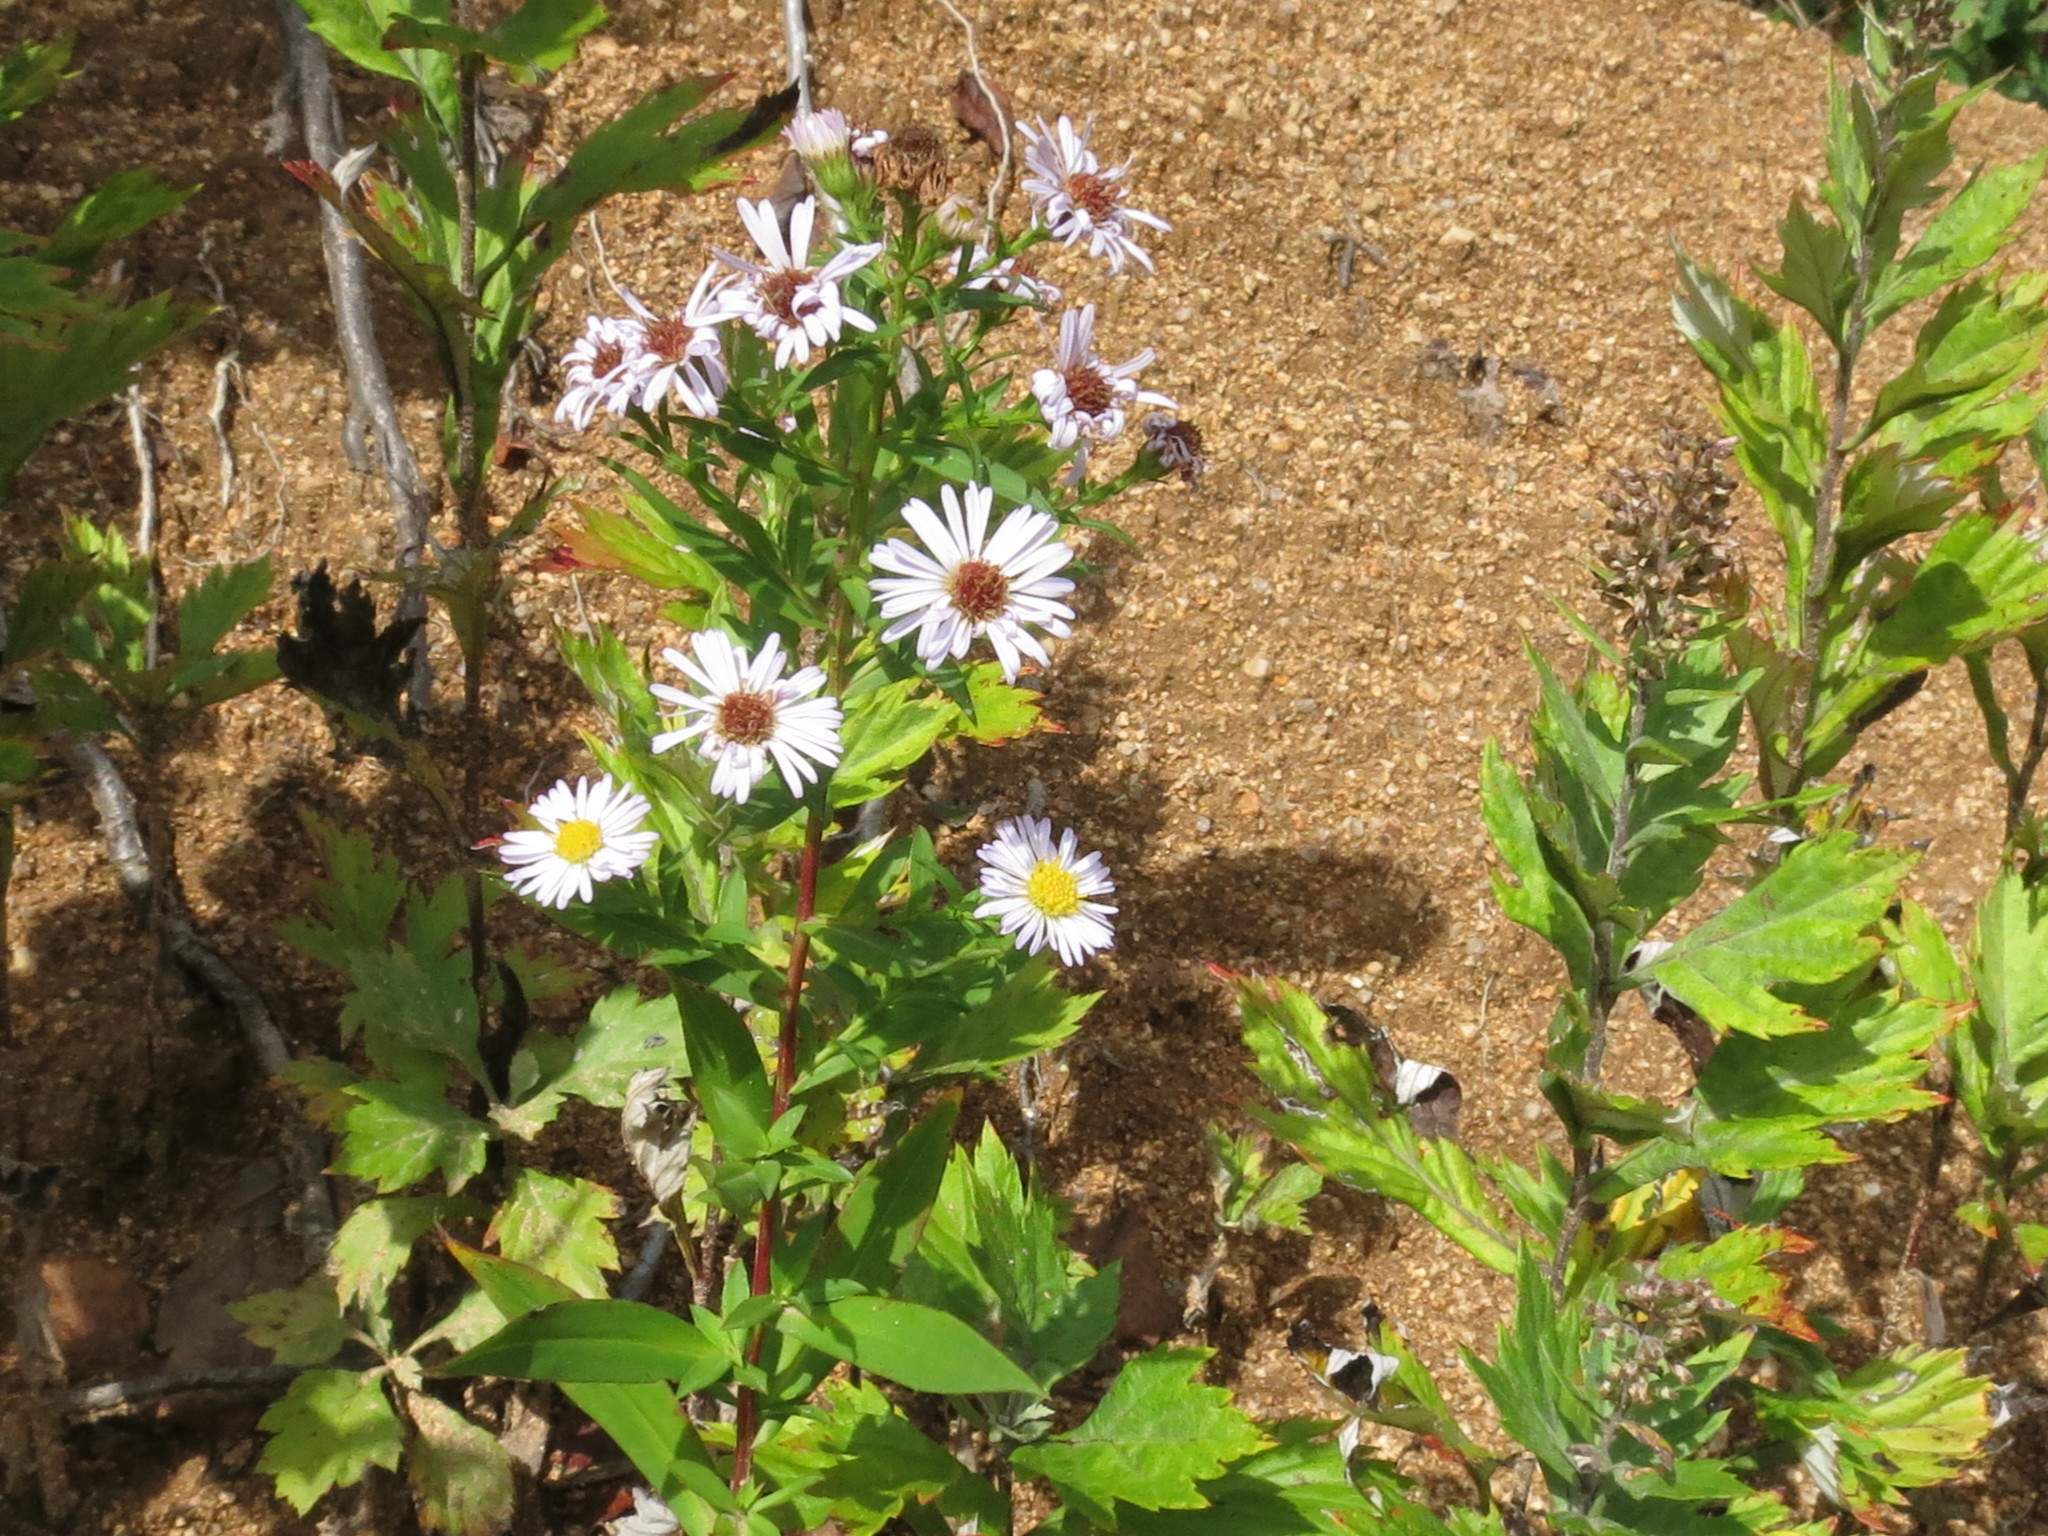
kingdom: Plantae
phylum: Tracheophyta
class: Magnoliopsida
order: Asterales
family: Asteraceae
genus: Symphyotrichum
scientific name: Symphyotrichum novi-belgii
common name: Michaelmas daisy
